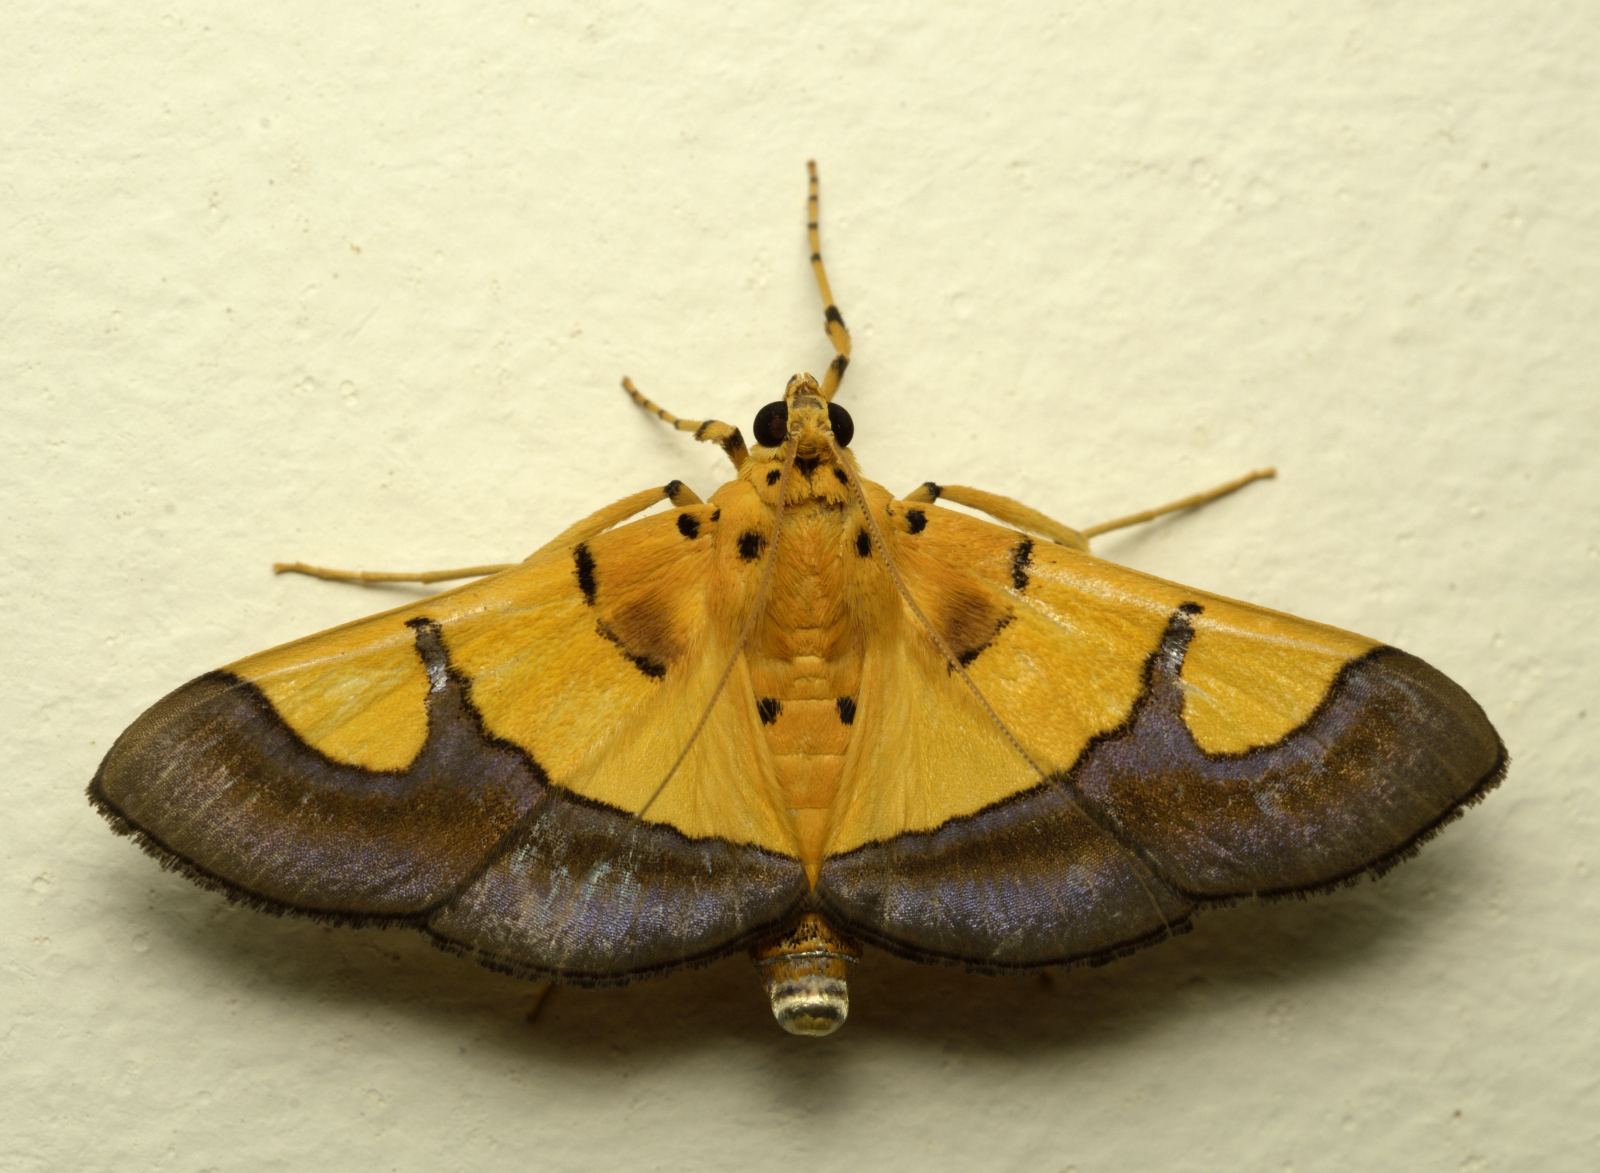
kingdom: Animalia
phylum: Arthropoda
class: Insecta
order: Lepidoptera
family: Crambidae
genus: Botyodes
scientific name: Botyodes
